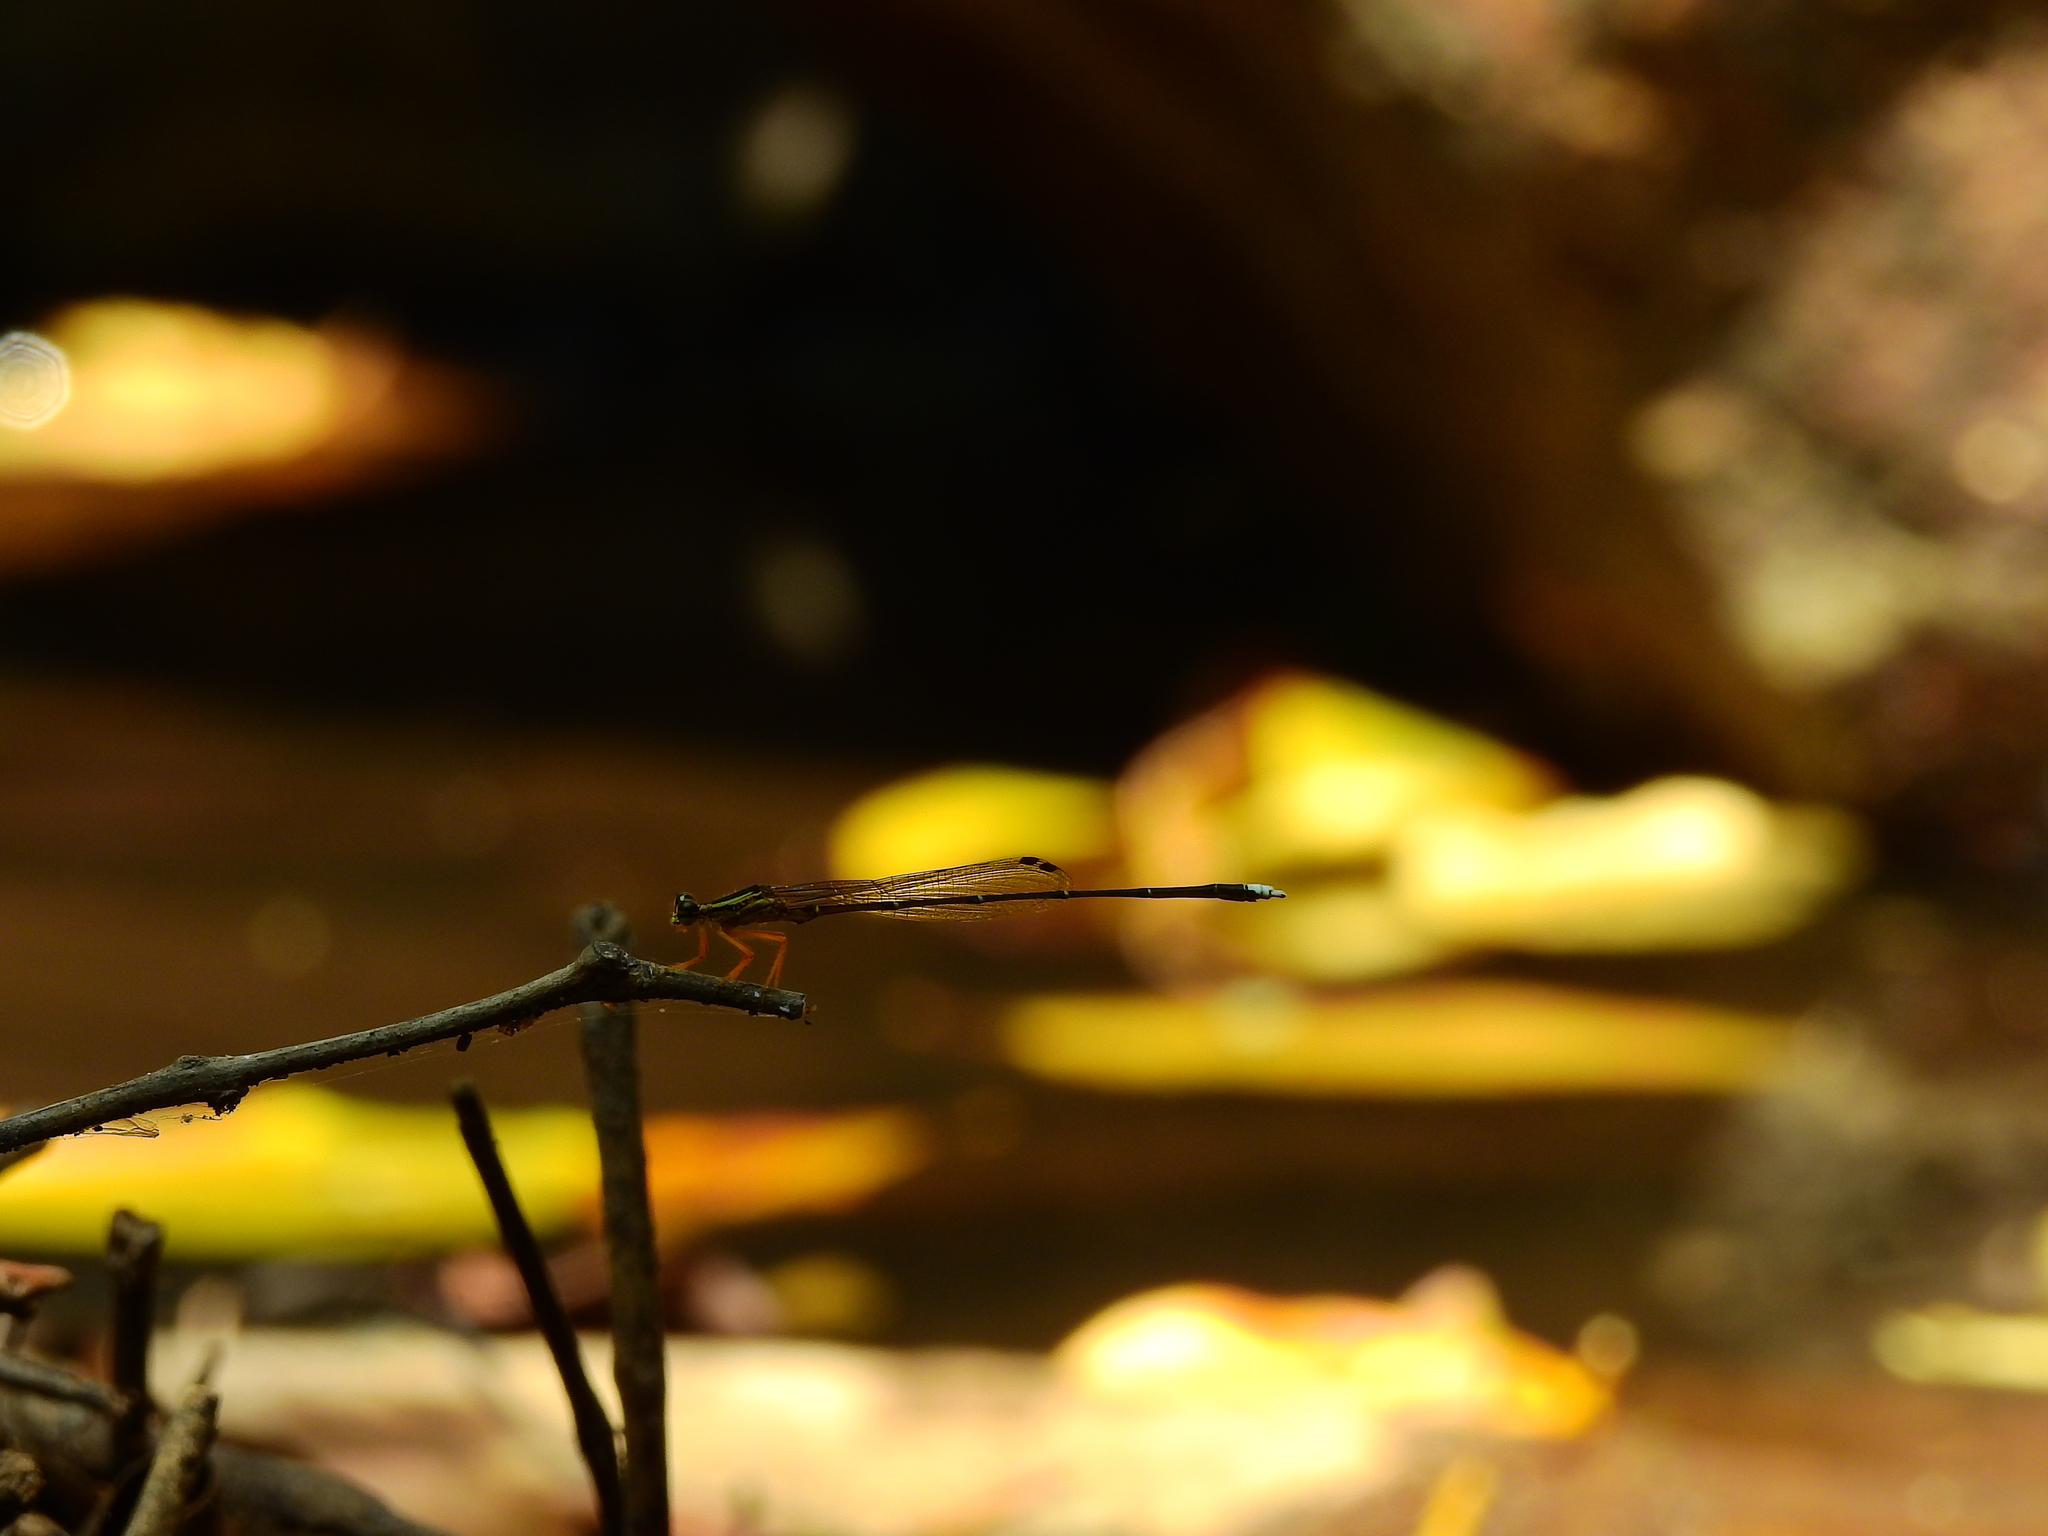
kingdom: Animalia
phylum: Arthropoda
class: Insecta
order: Odonata
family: Platycnemididae
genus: Copera
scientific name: Copera marginipes
